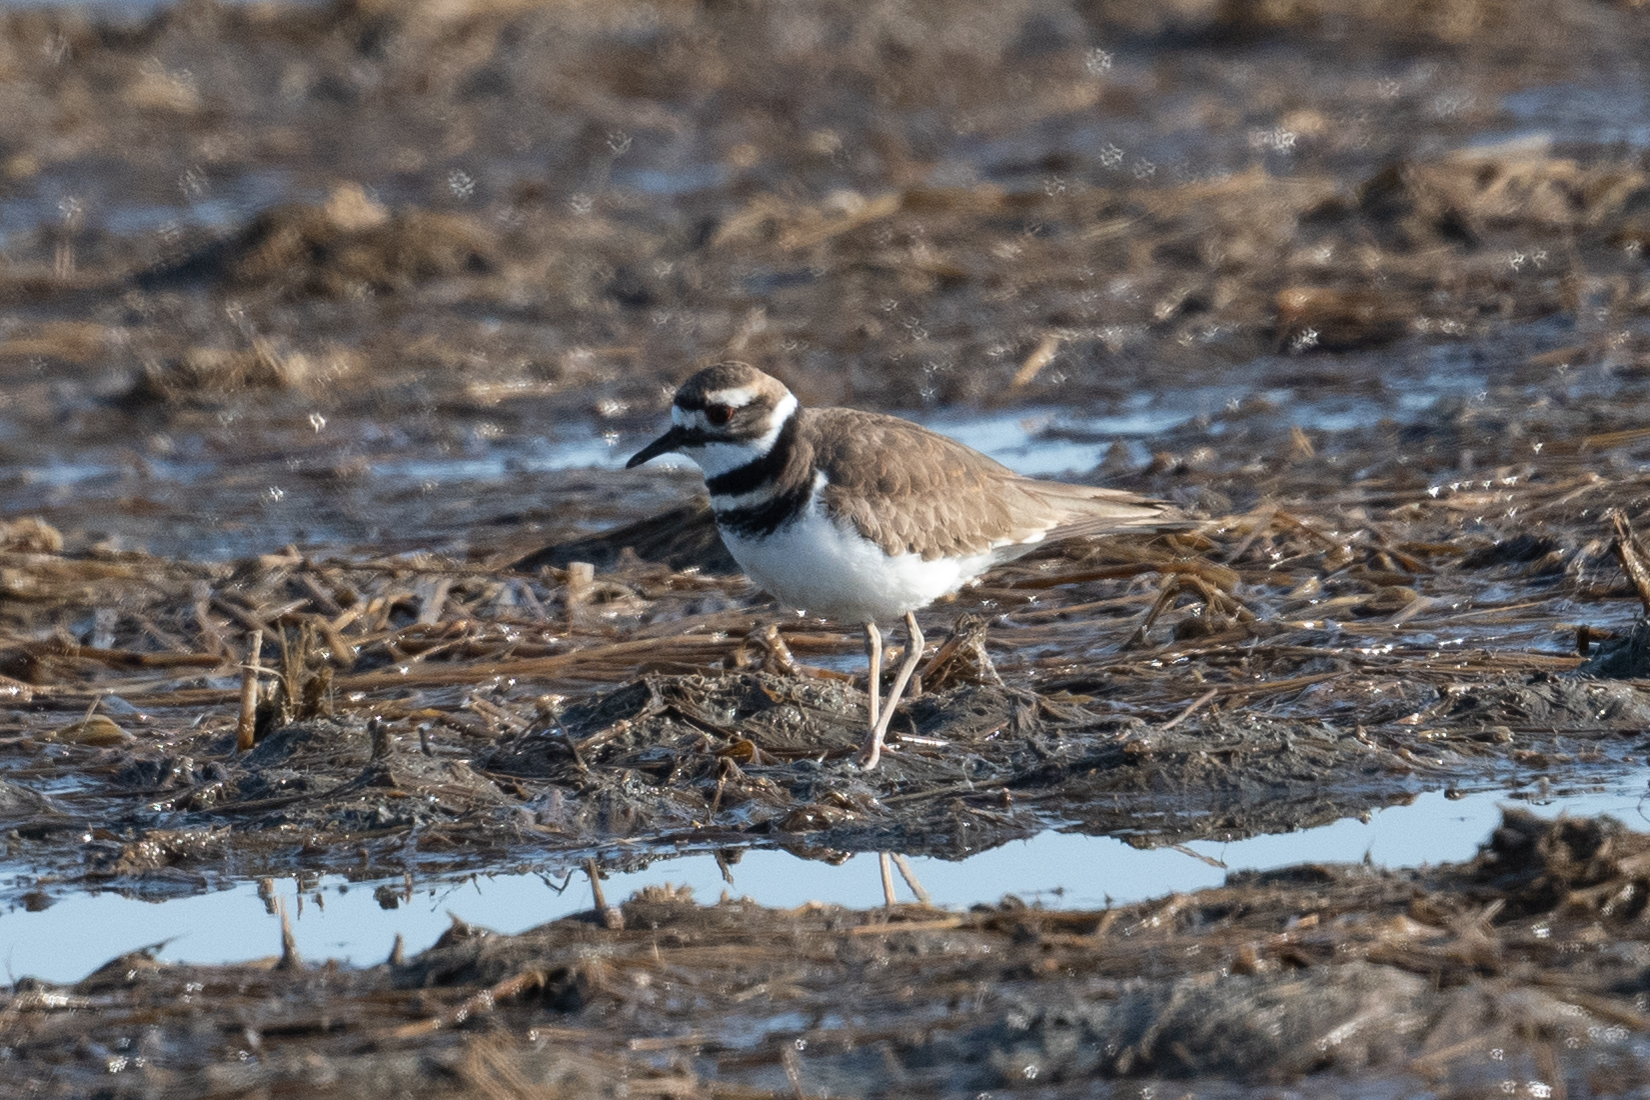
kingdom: Animalia
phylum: Chordata
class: Aves
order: Charadriiformes
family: Charadriidae
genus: Charadrius
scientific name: Charadrius vociferus
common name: Killdeer
